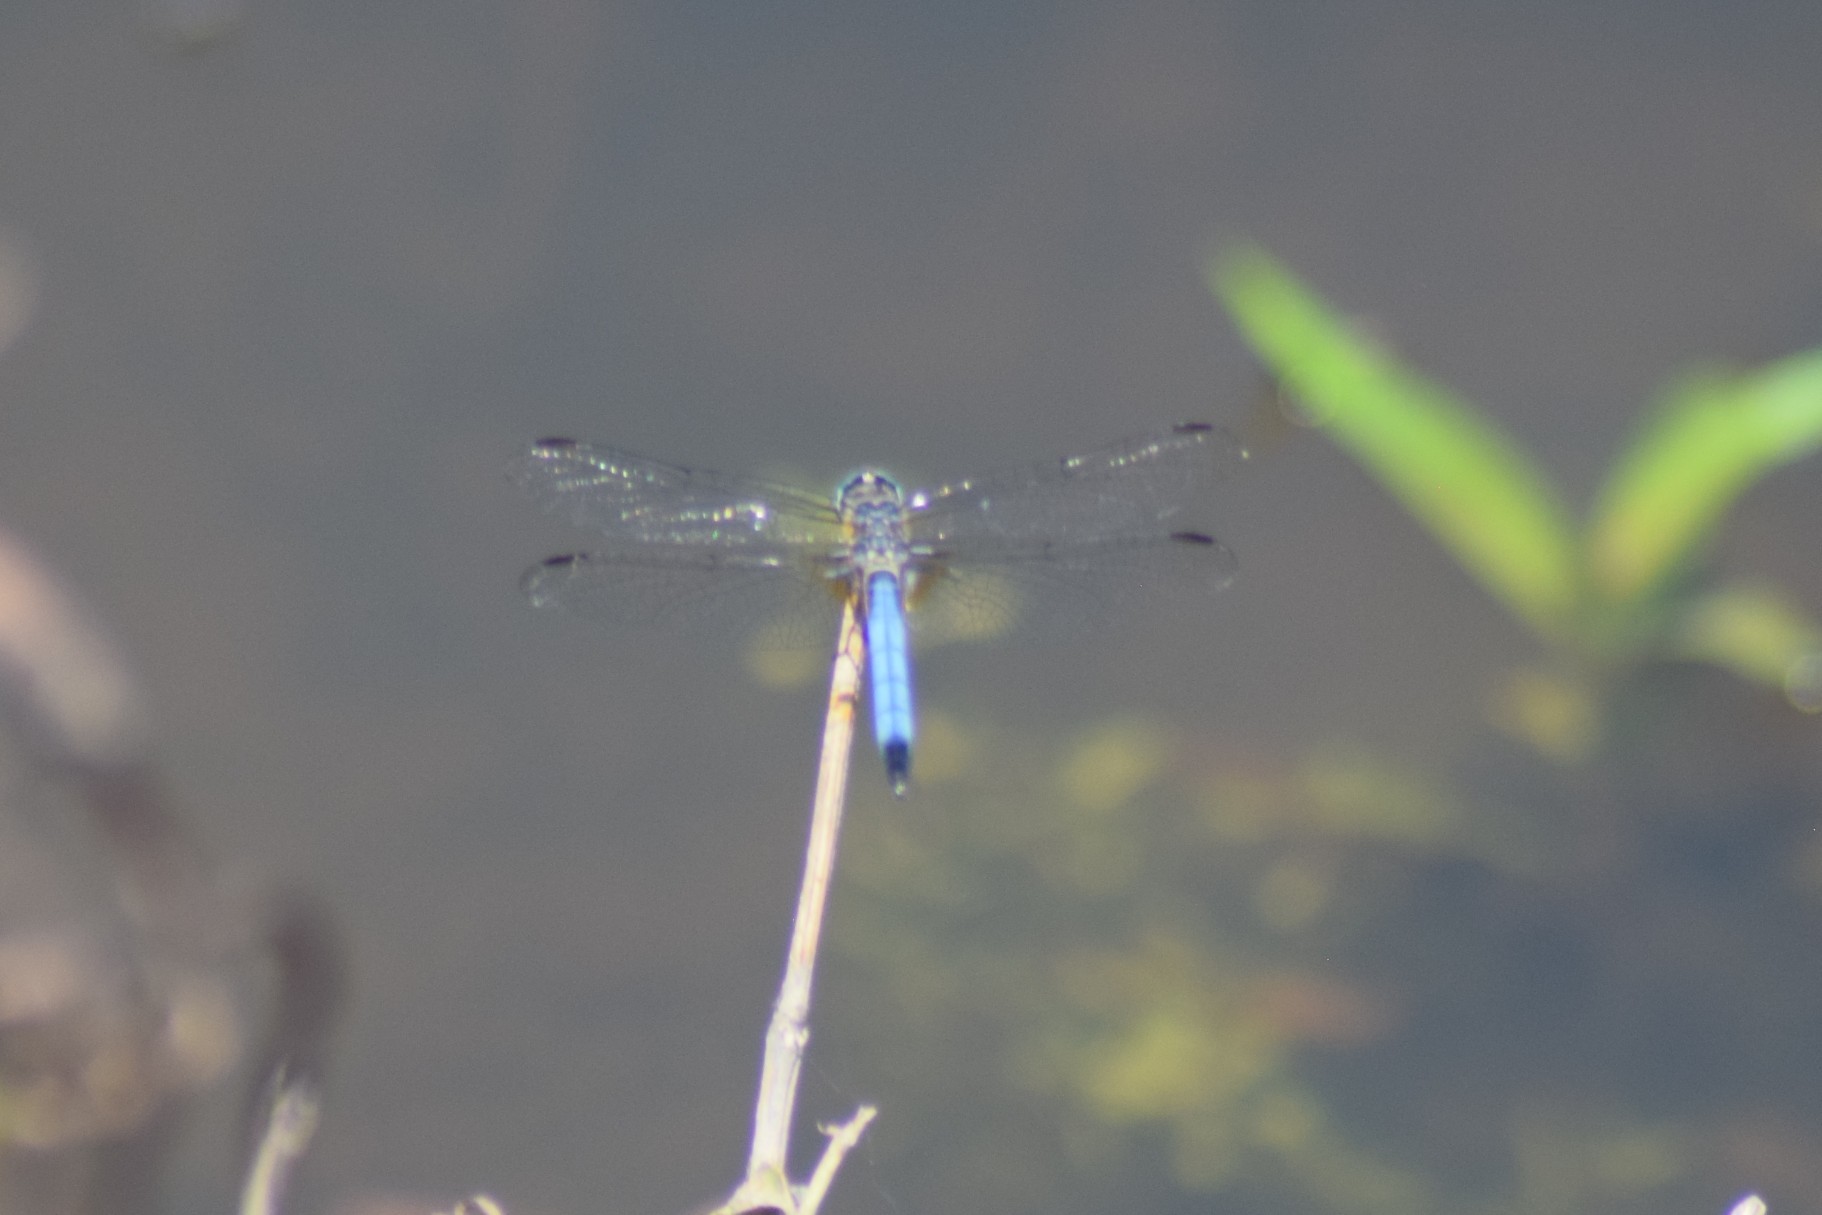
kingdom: Animalia
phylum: Arthropoda
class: Insecta
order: Odonata
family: Libellulidae
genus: Pachydiplax
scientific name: Pachydiplax longipennis
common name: Blue dasher
